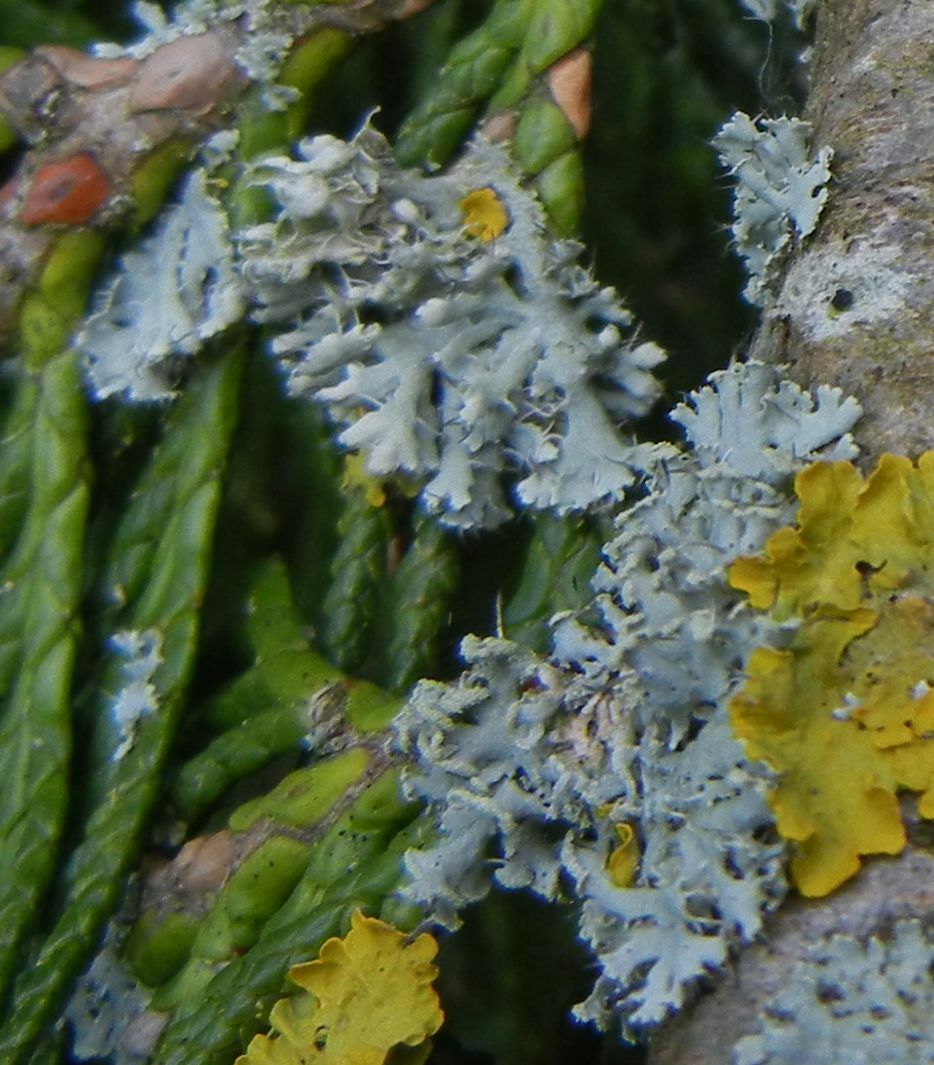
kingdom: Fungi
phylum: Ascomycota
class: Lecanoromycetes
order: Caliciales
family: Physciaceae
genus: Physcia
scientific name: Physcia tenella
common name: Fringed rosette lichen
